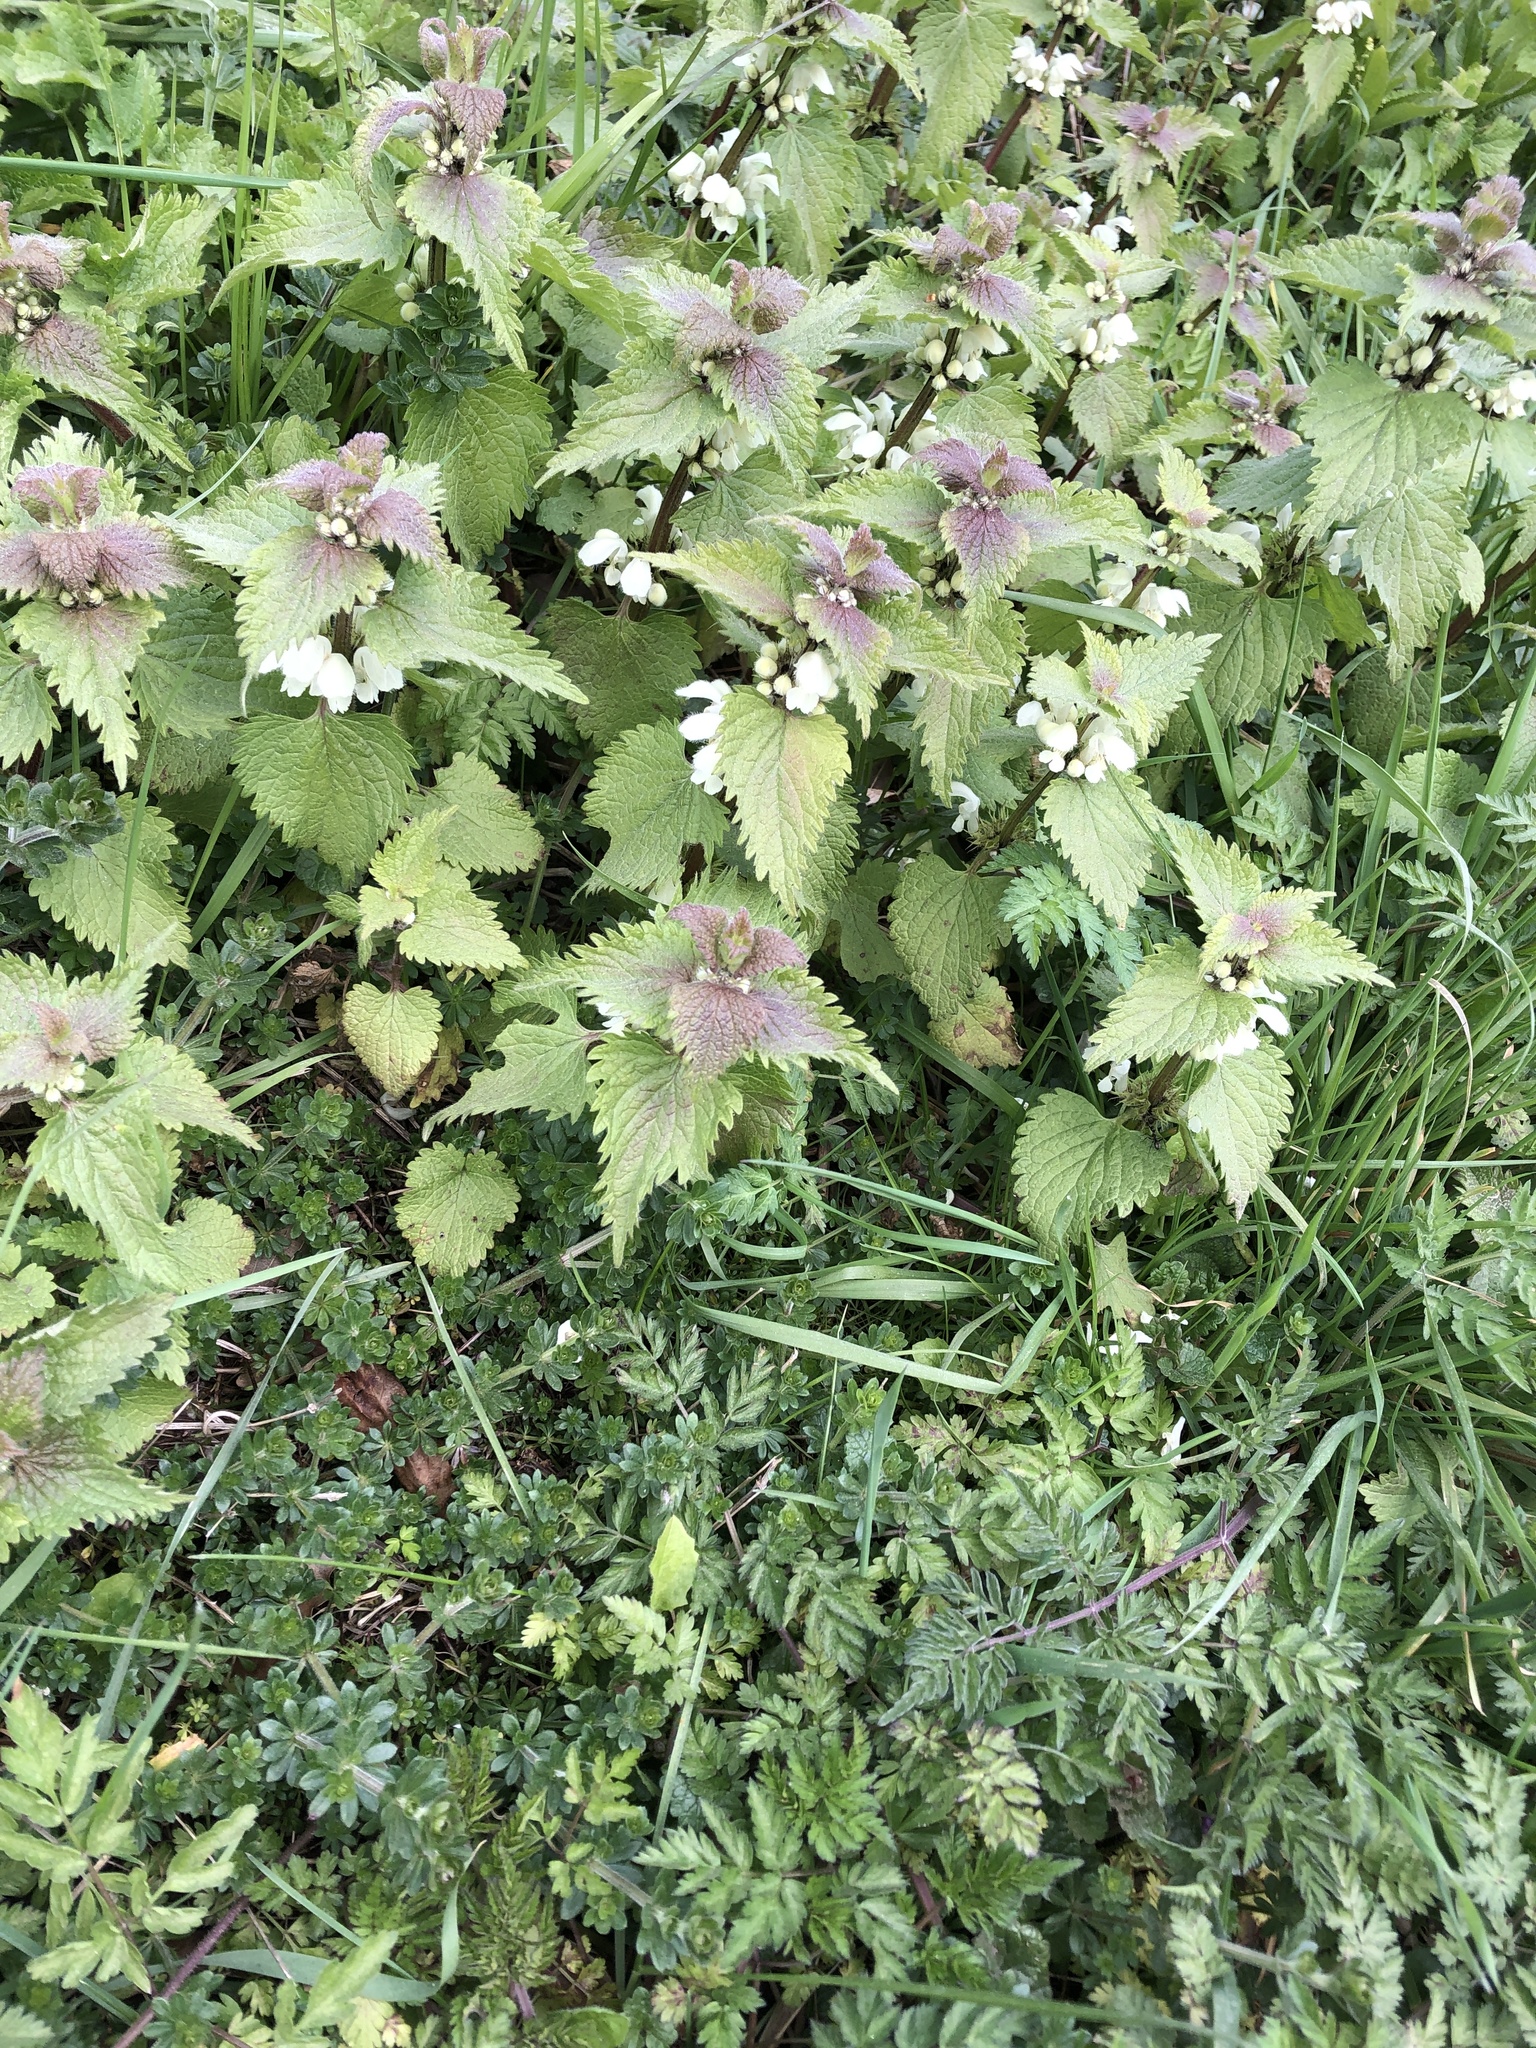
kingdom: Plantae
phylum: Tracheophyta
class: Magnoliopsida
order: Lamiales
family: Lamiaceae
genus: Lamium
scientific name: Lamium album
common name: White dead-nettle
